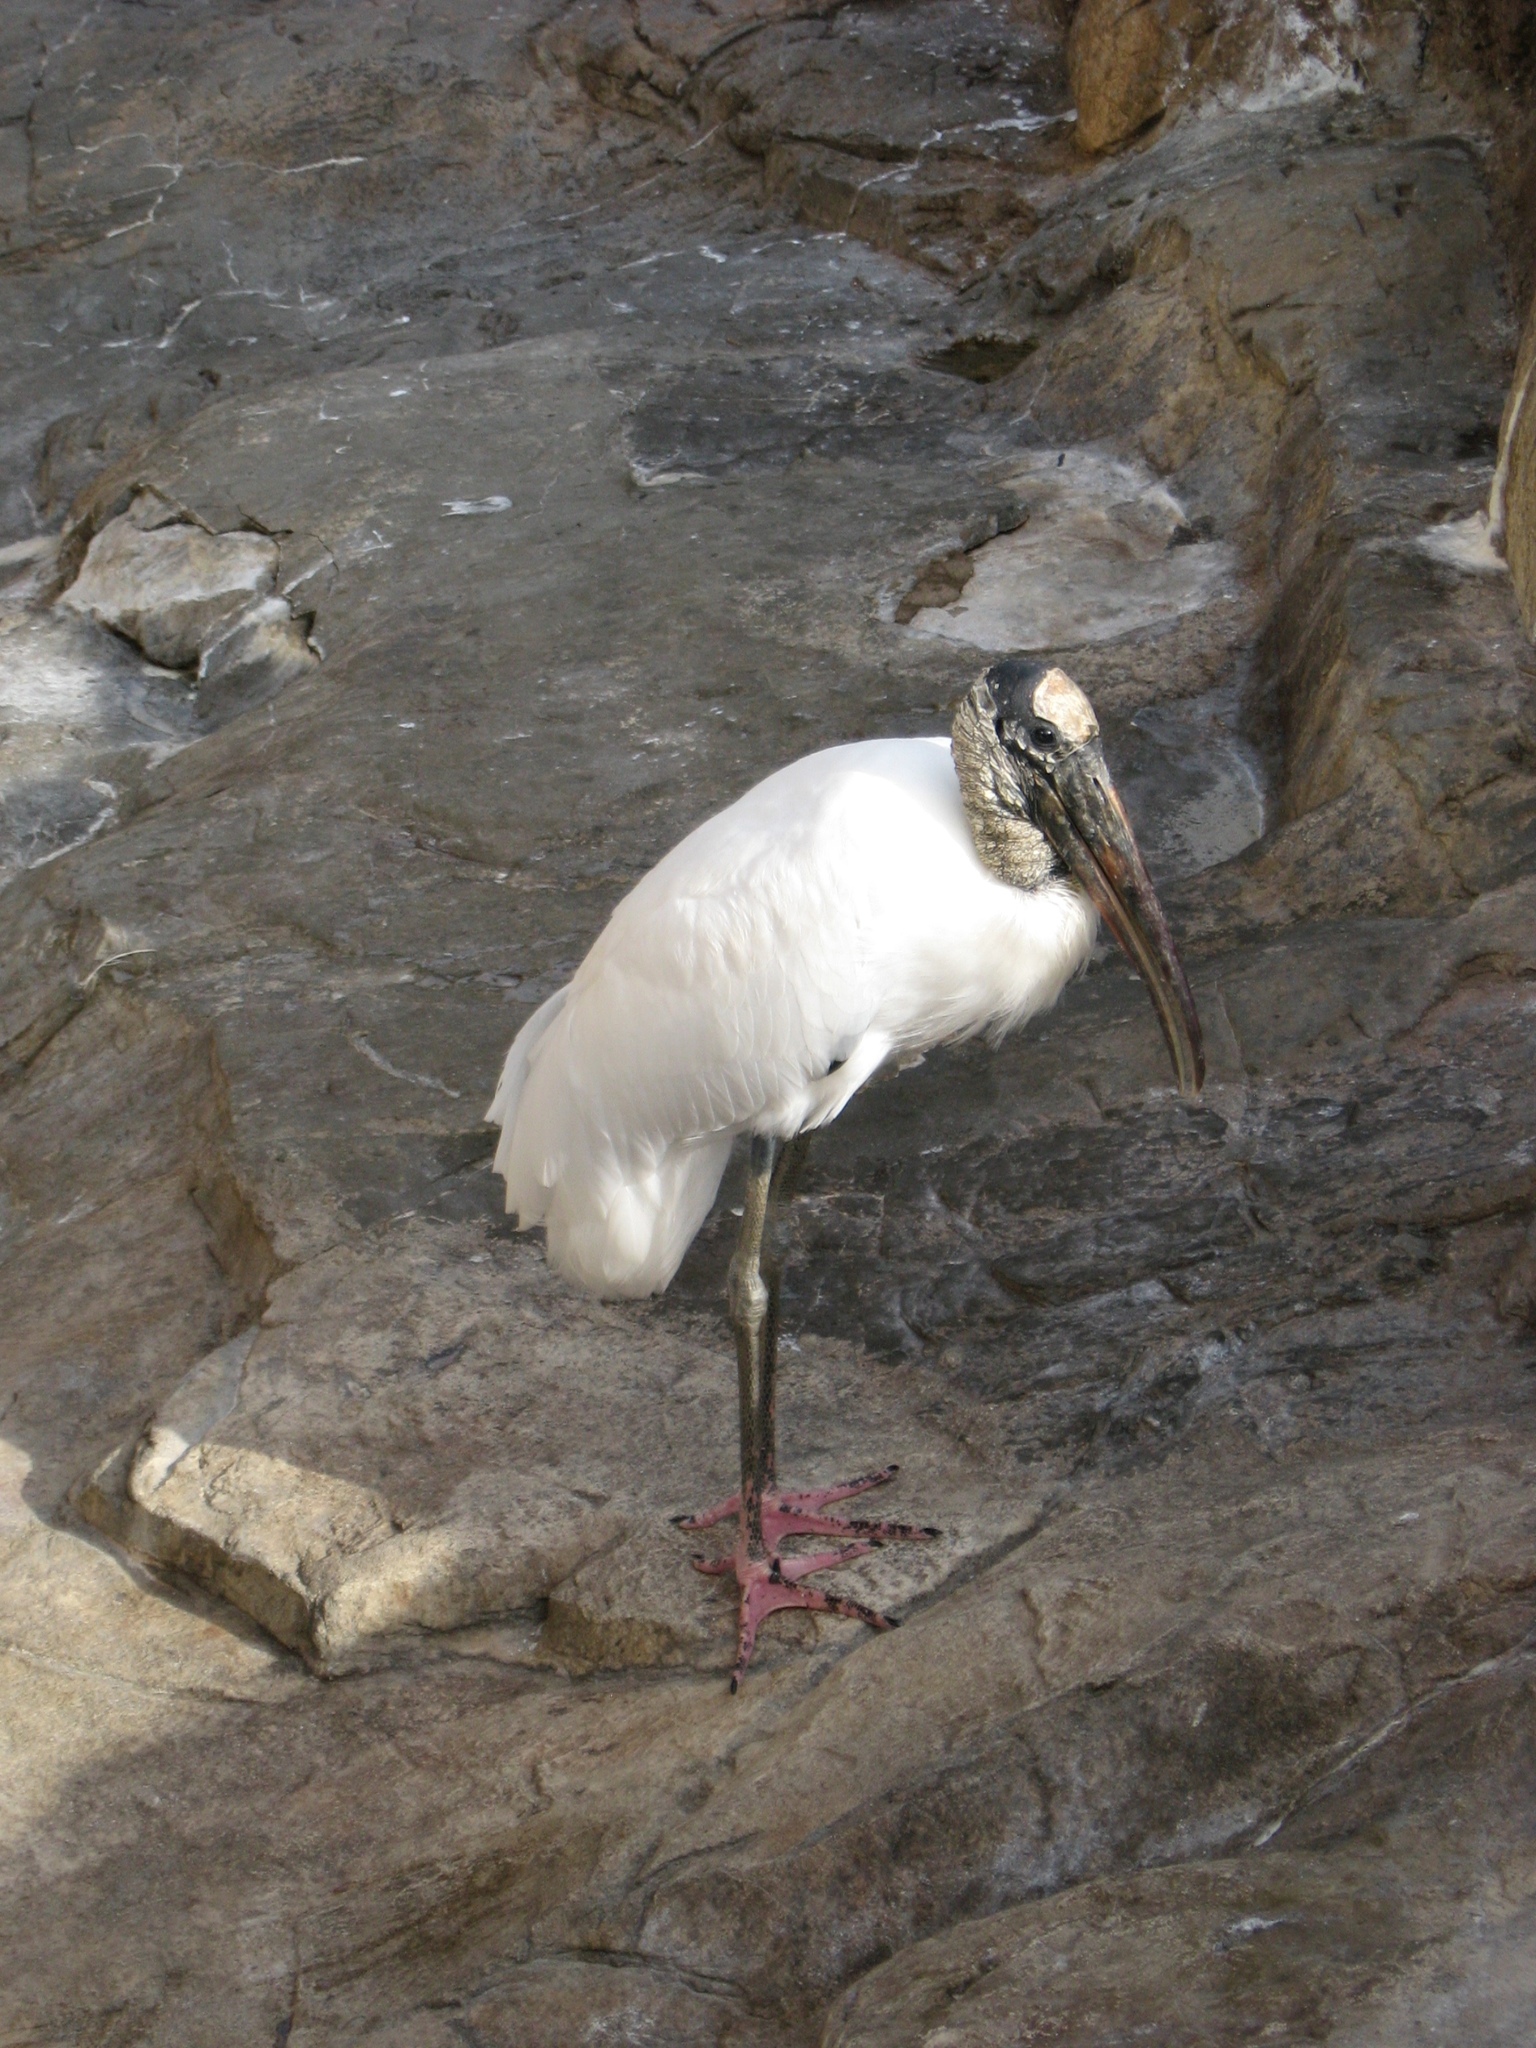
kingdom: Animalia
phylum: Chordata
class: Aves
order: Ciconiiformes
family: Ciconiidae
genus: Mycteria
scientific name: Mycteria americana
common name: Wood stork
